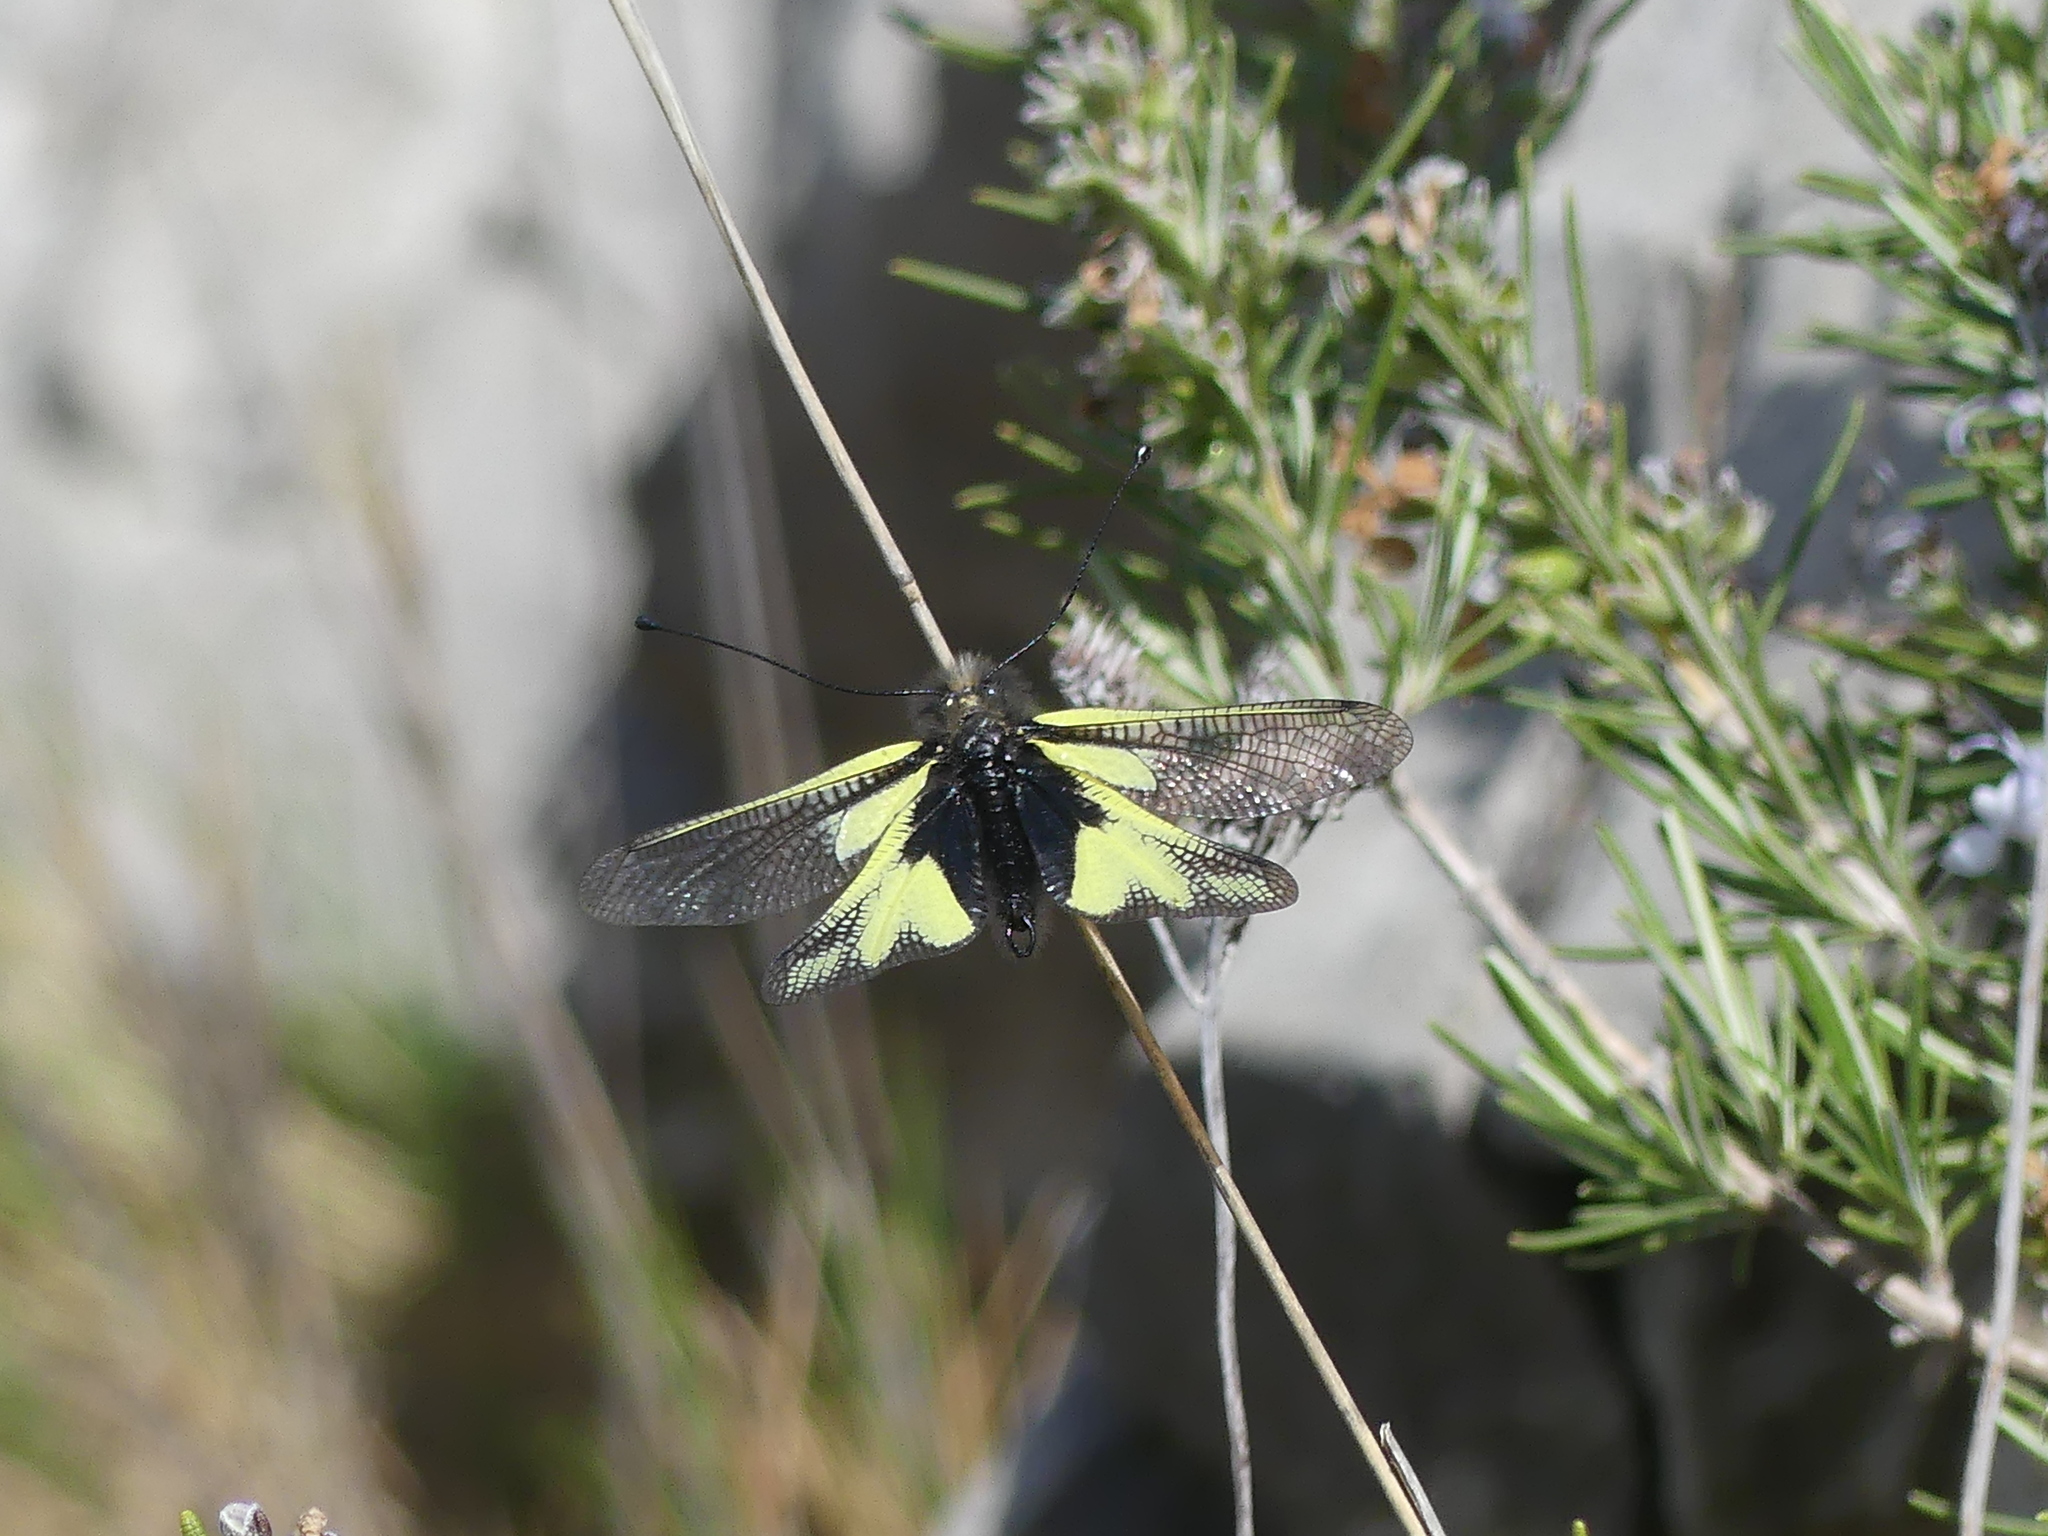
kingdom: Animalia
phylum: Arthropoda
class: Insecta
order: Neuroptera
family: Ascalaphidae
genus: Libelloides
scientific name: Libelloides coccajus
